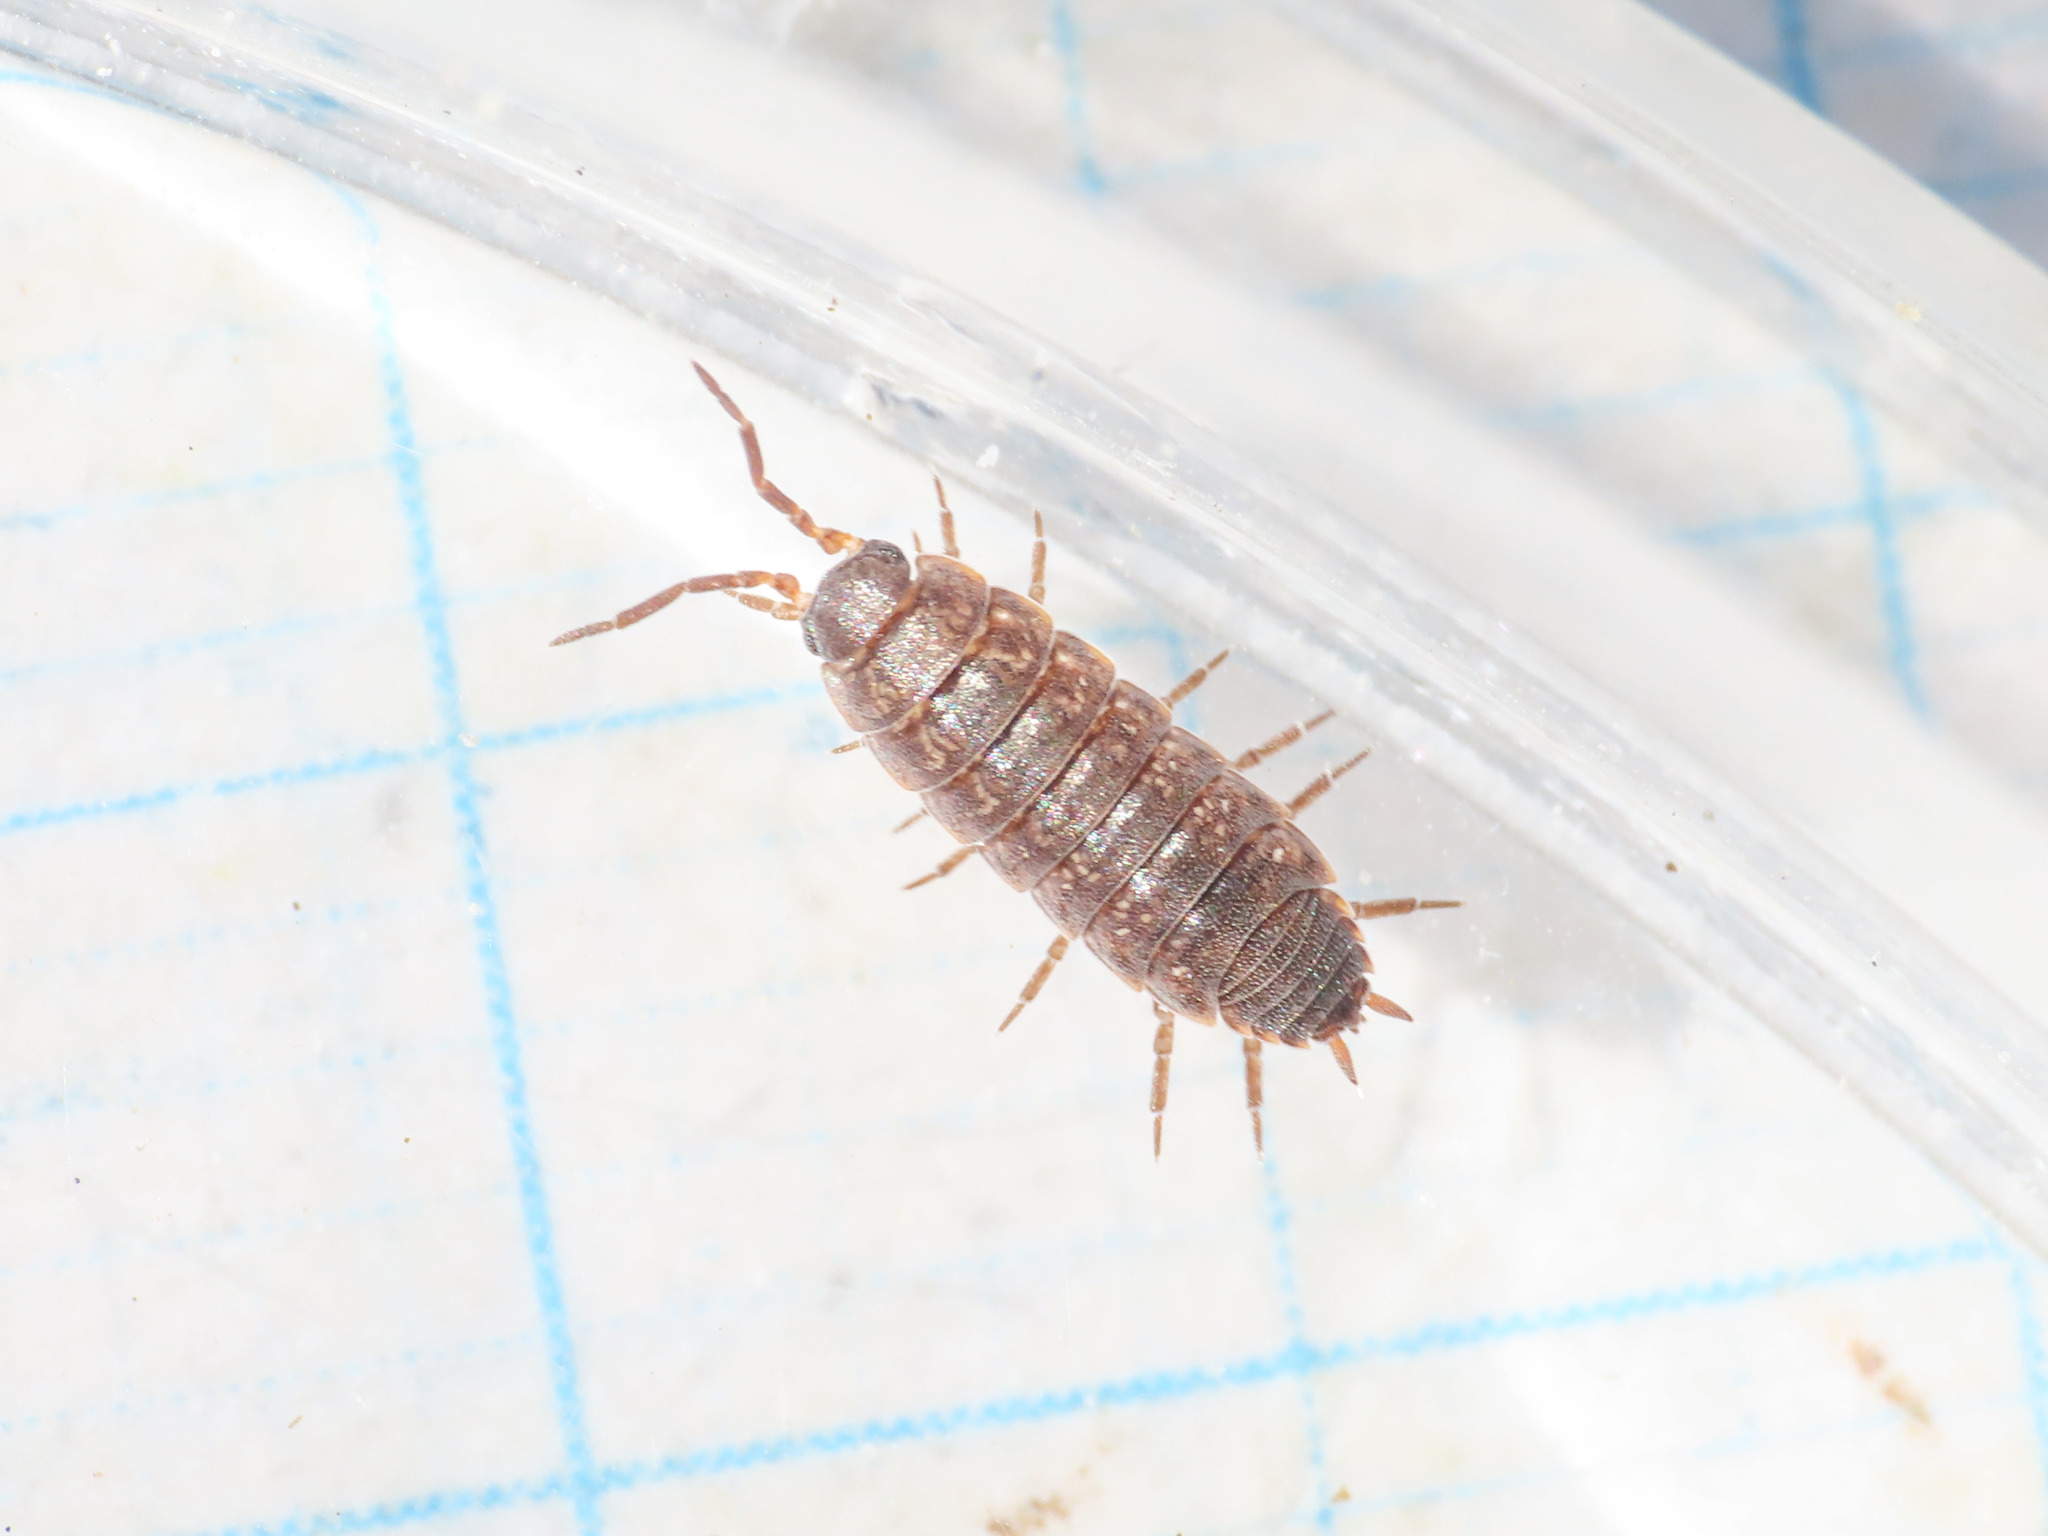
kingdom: Animalia
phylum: Arthropoda
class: Malacostraca
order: Isopoda
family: Porcellionidae
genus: Porcellionides
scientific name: Porcellionides aternanus
